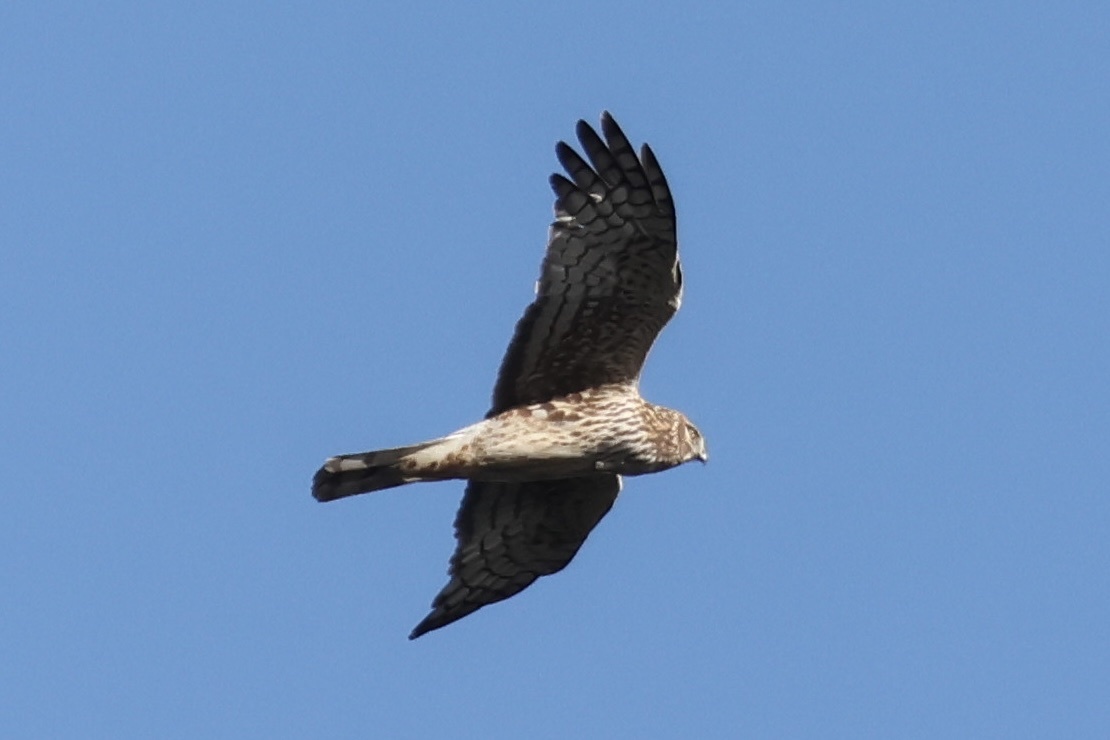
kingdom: Animalia
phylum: Chordata
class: Aves
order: Accipitriformes
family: Accipitridae
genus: Circus
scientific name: Circus cyaneus
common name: Hen harrier
